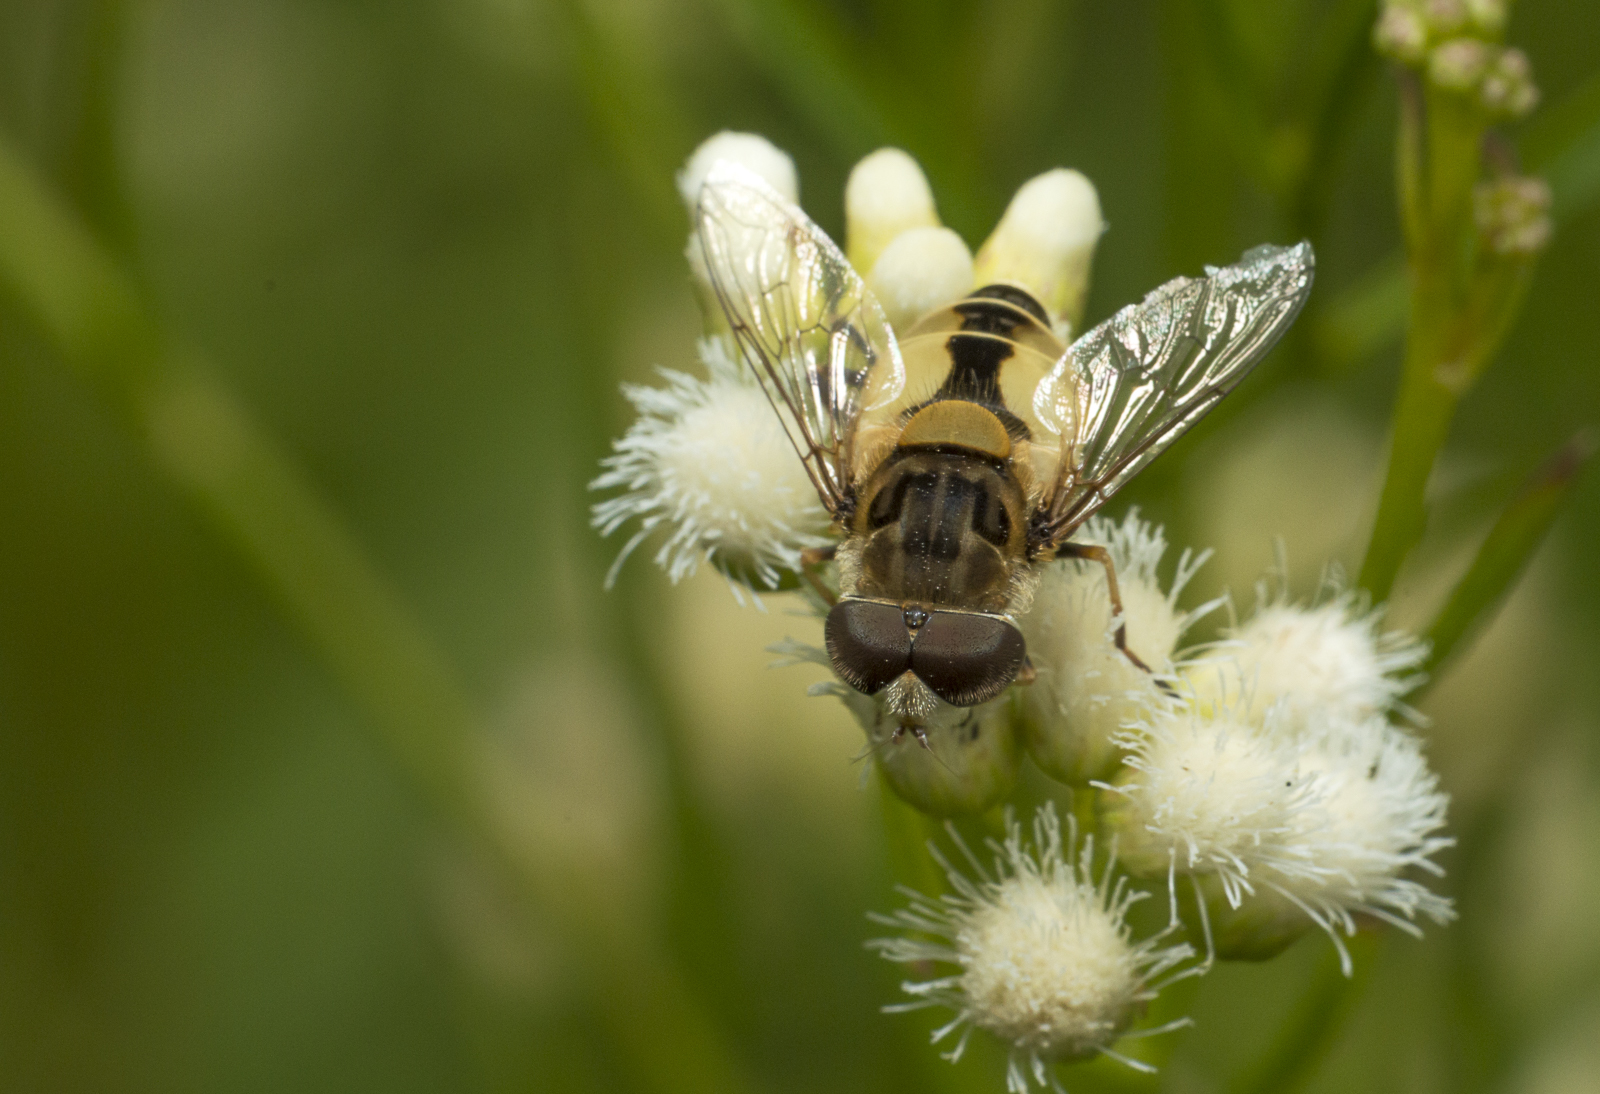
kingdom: Animalia
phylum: Arthropoda
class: Insecta
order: Diptera
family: Syrphidae
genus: Palpada
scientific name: Palpada
